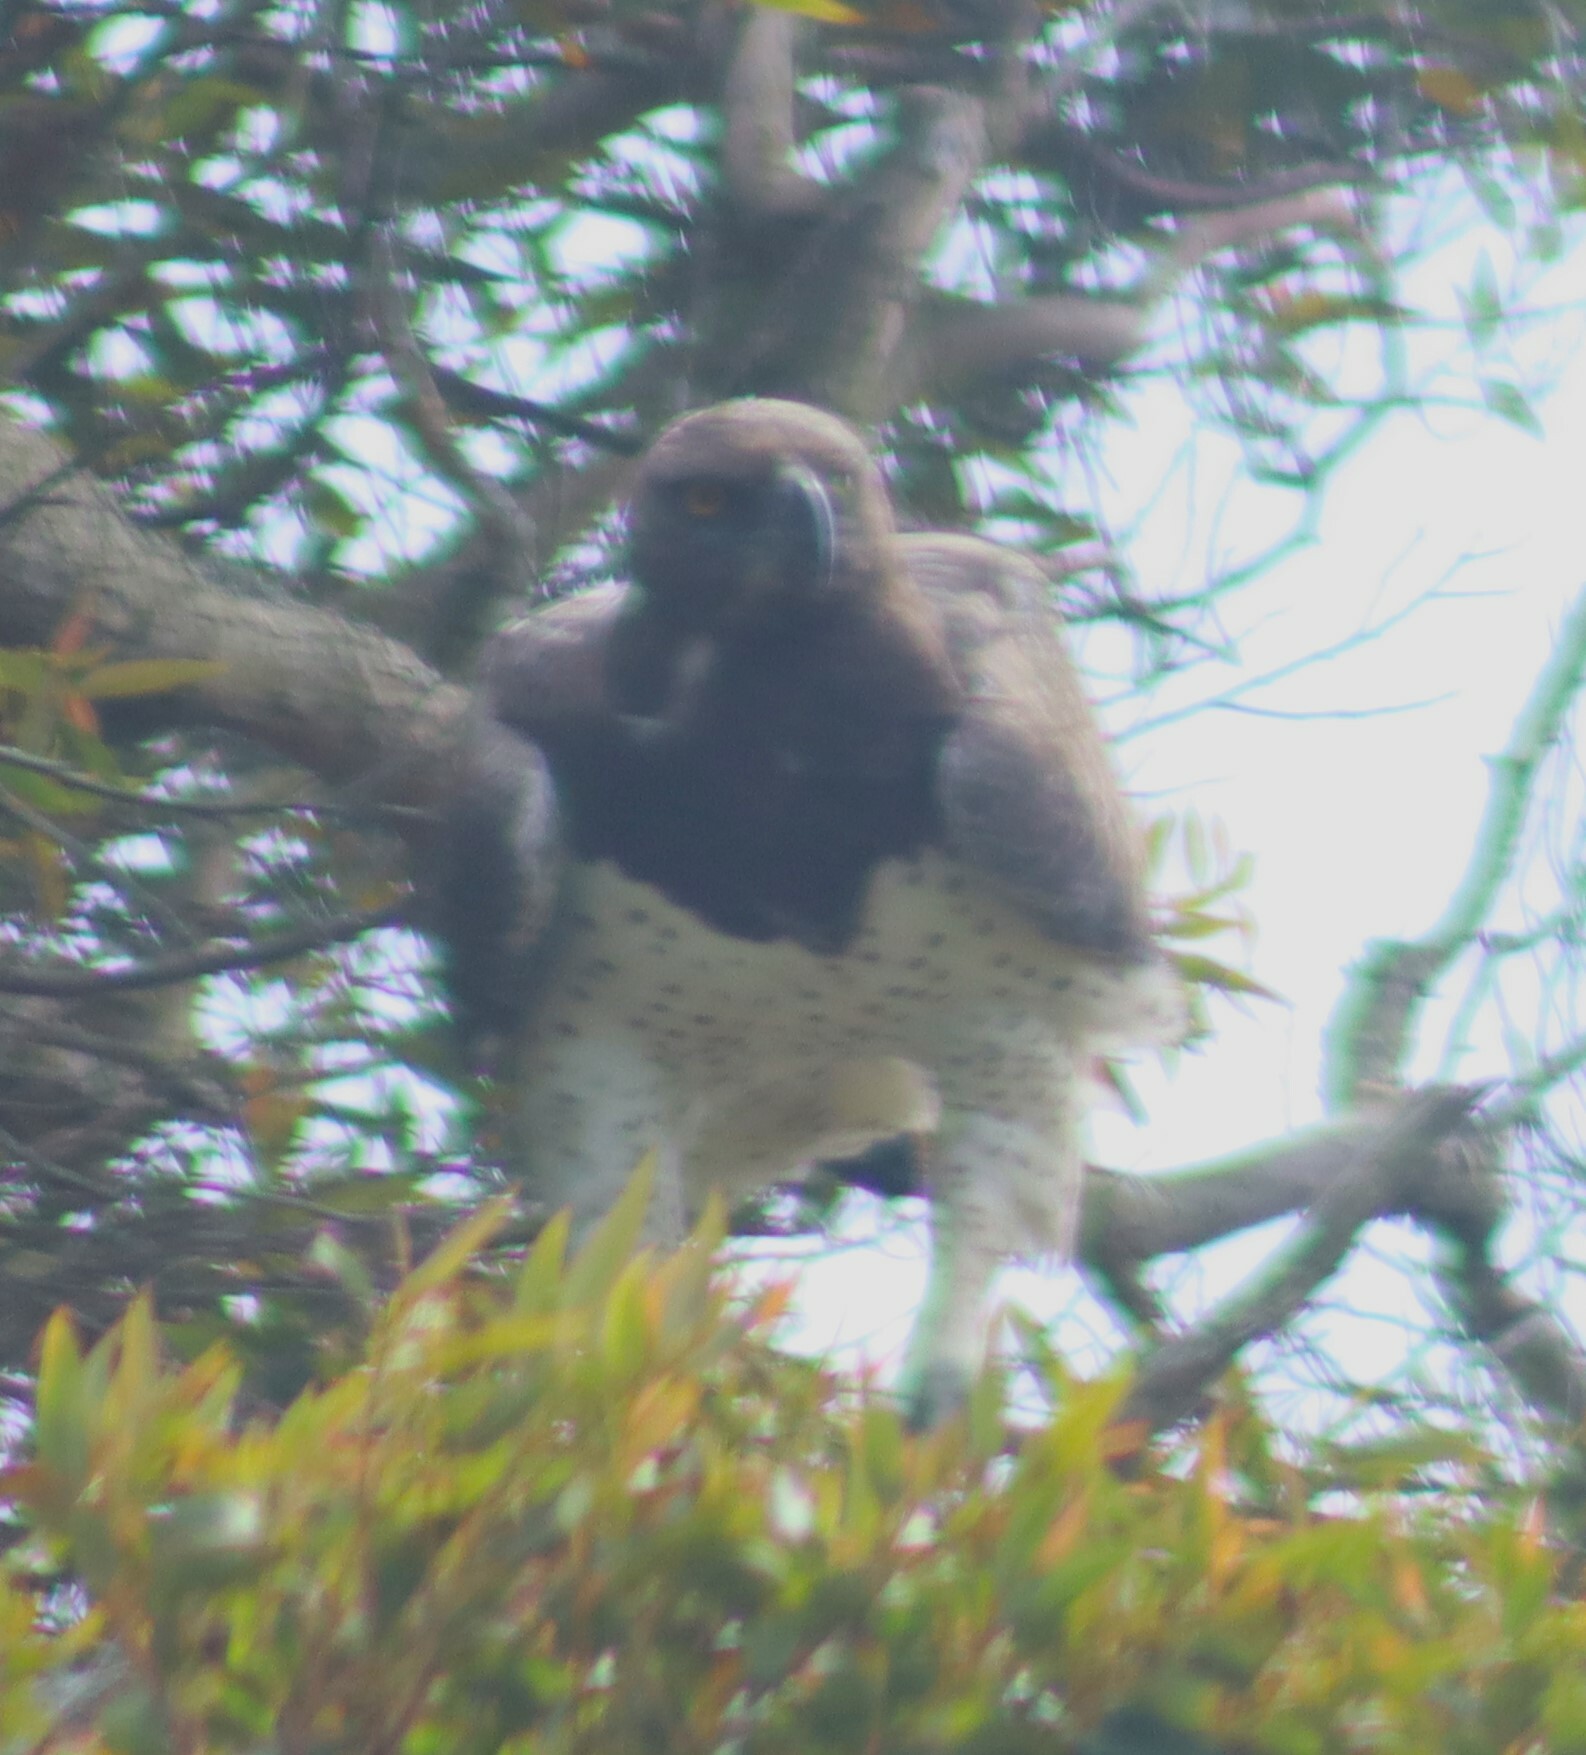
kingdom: Animalia
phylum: Chordata
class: Aves
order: Accipitriformes
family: Accipitridae
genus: Polemaetus
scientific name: Polemaetus bellicosus
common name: Martial eagle
